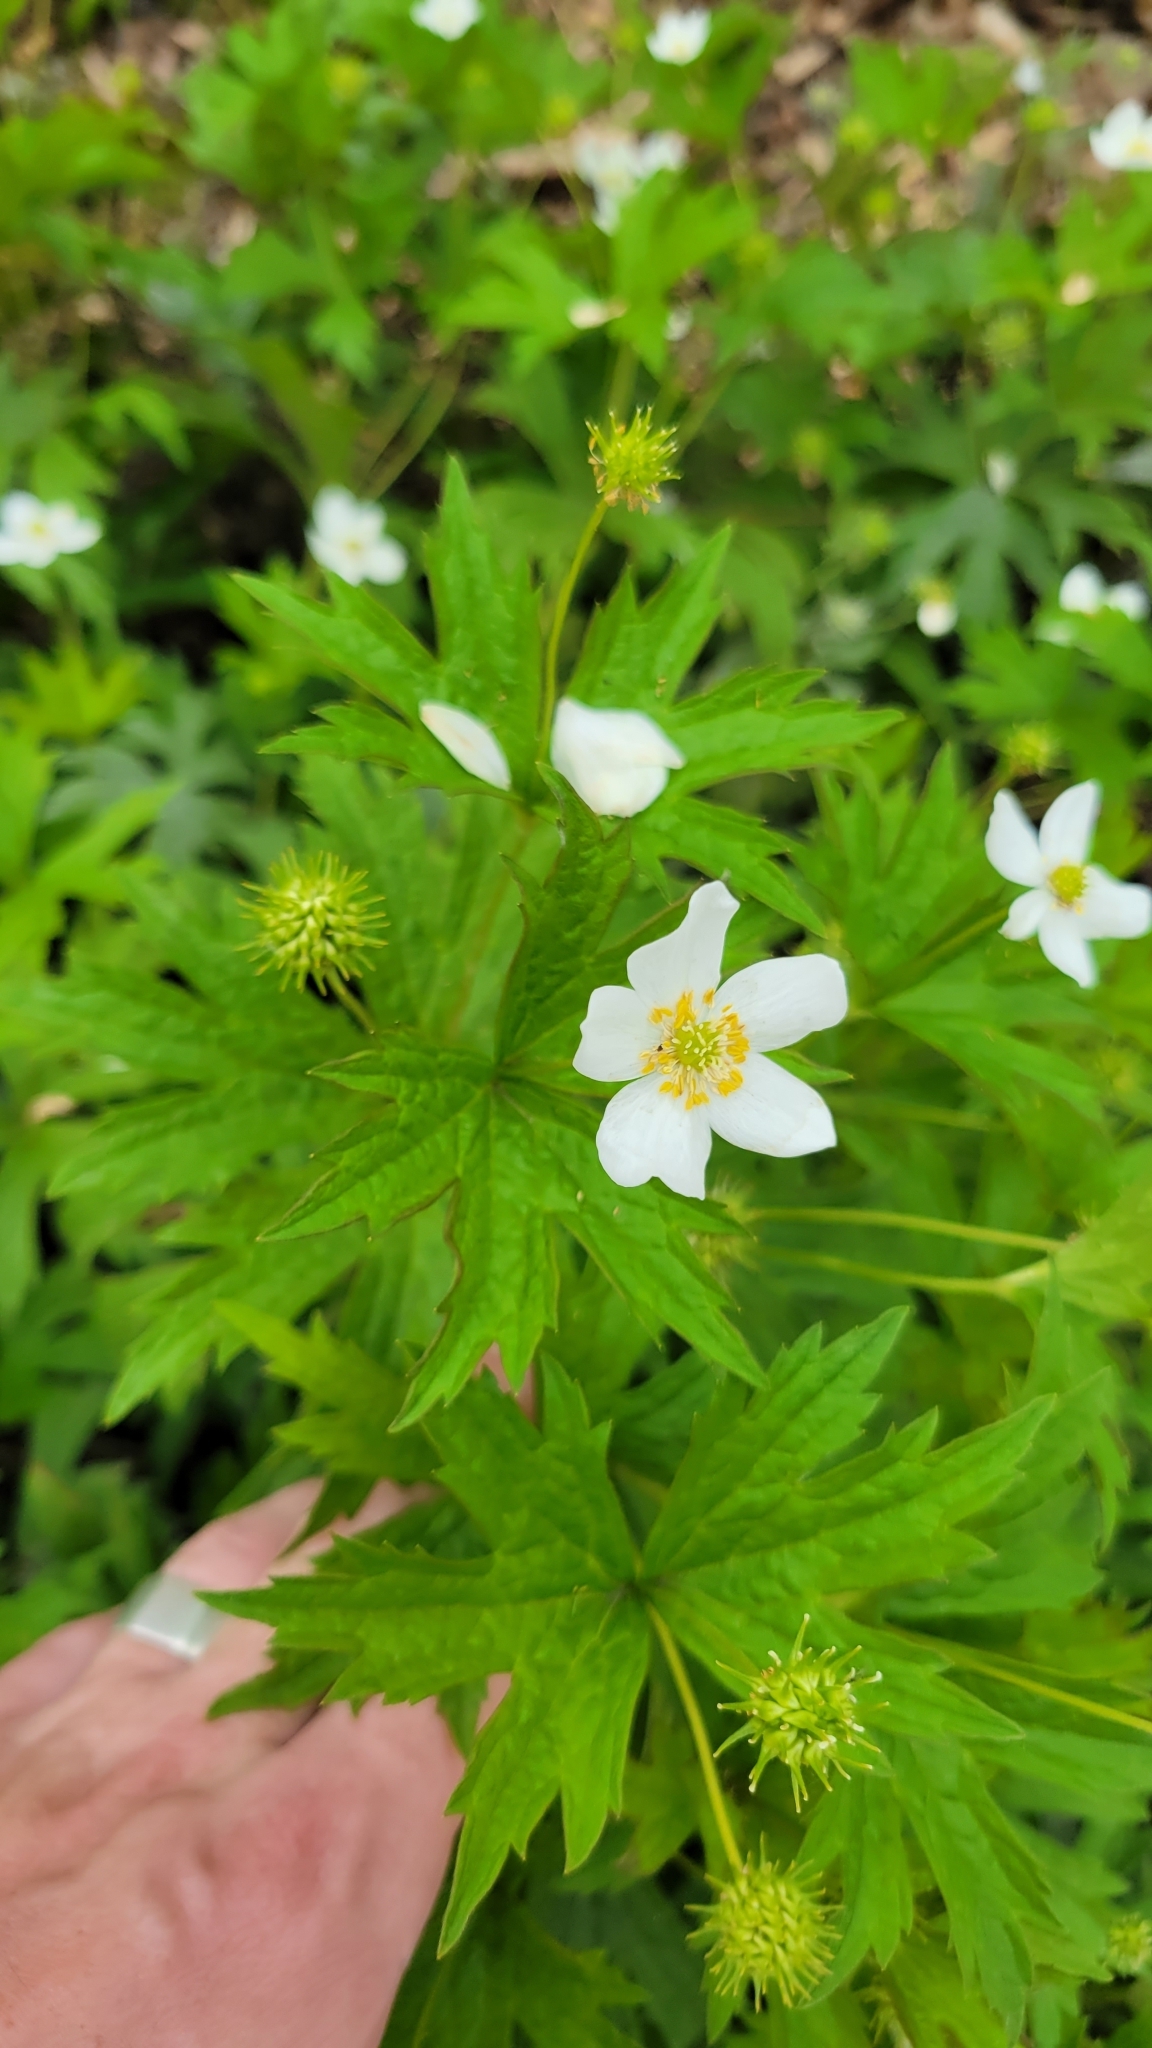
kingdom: Plantae
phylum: Tracheophyta
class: Magnoliopsida
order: Ranunculales
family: Ranunculaceae
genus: Anemonastrum
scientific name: Anemonastrum canadense
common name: Canada anemone
